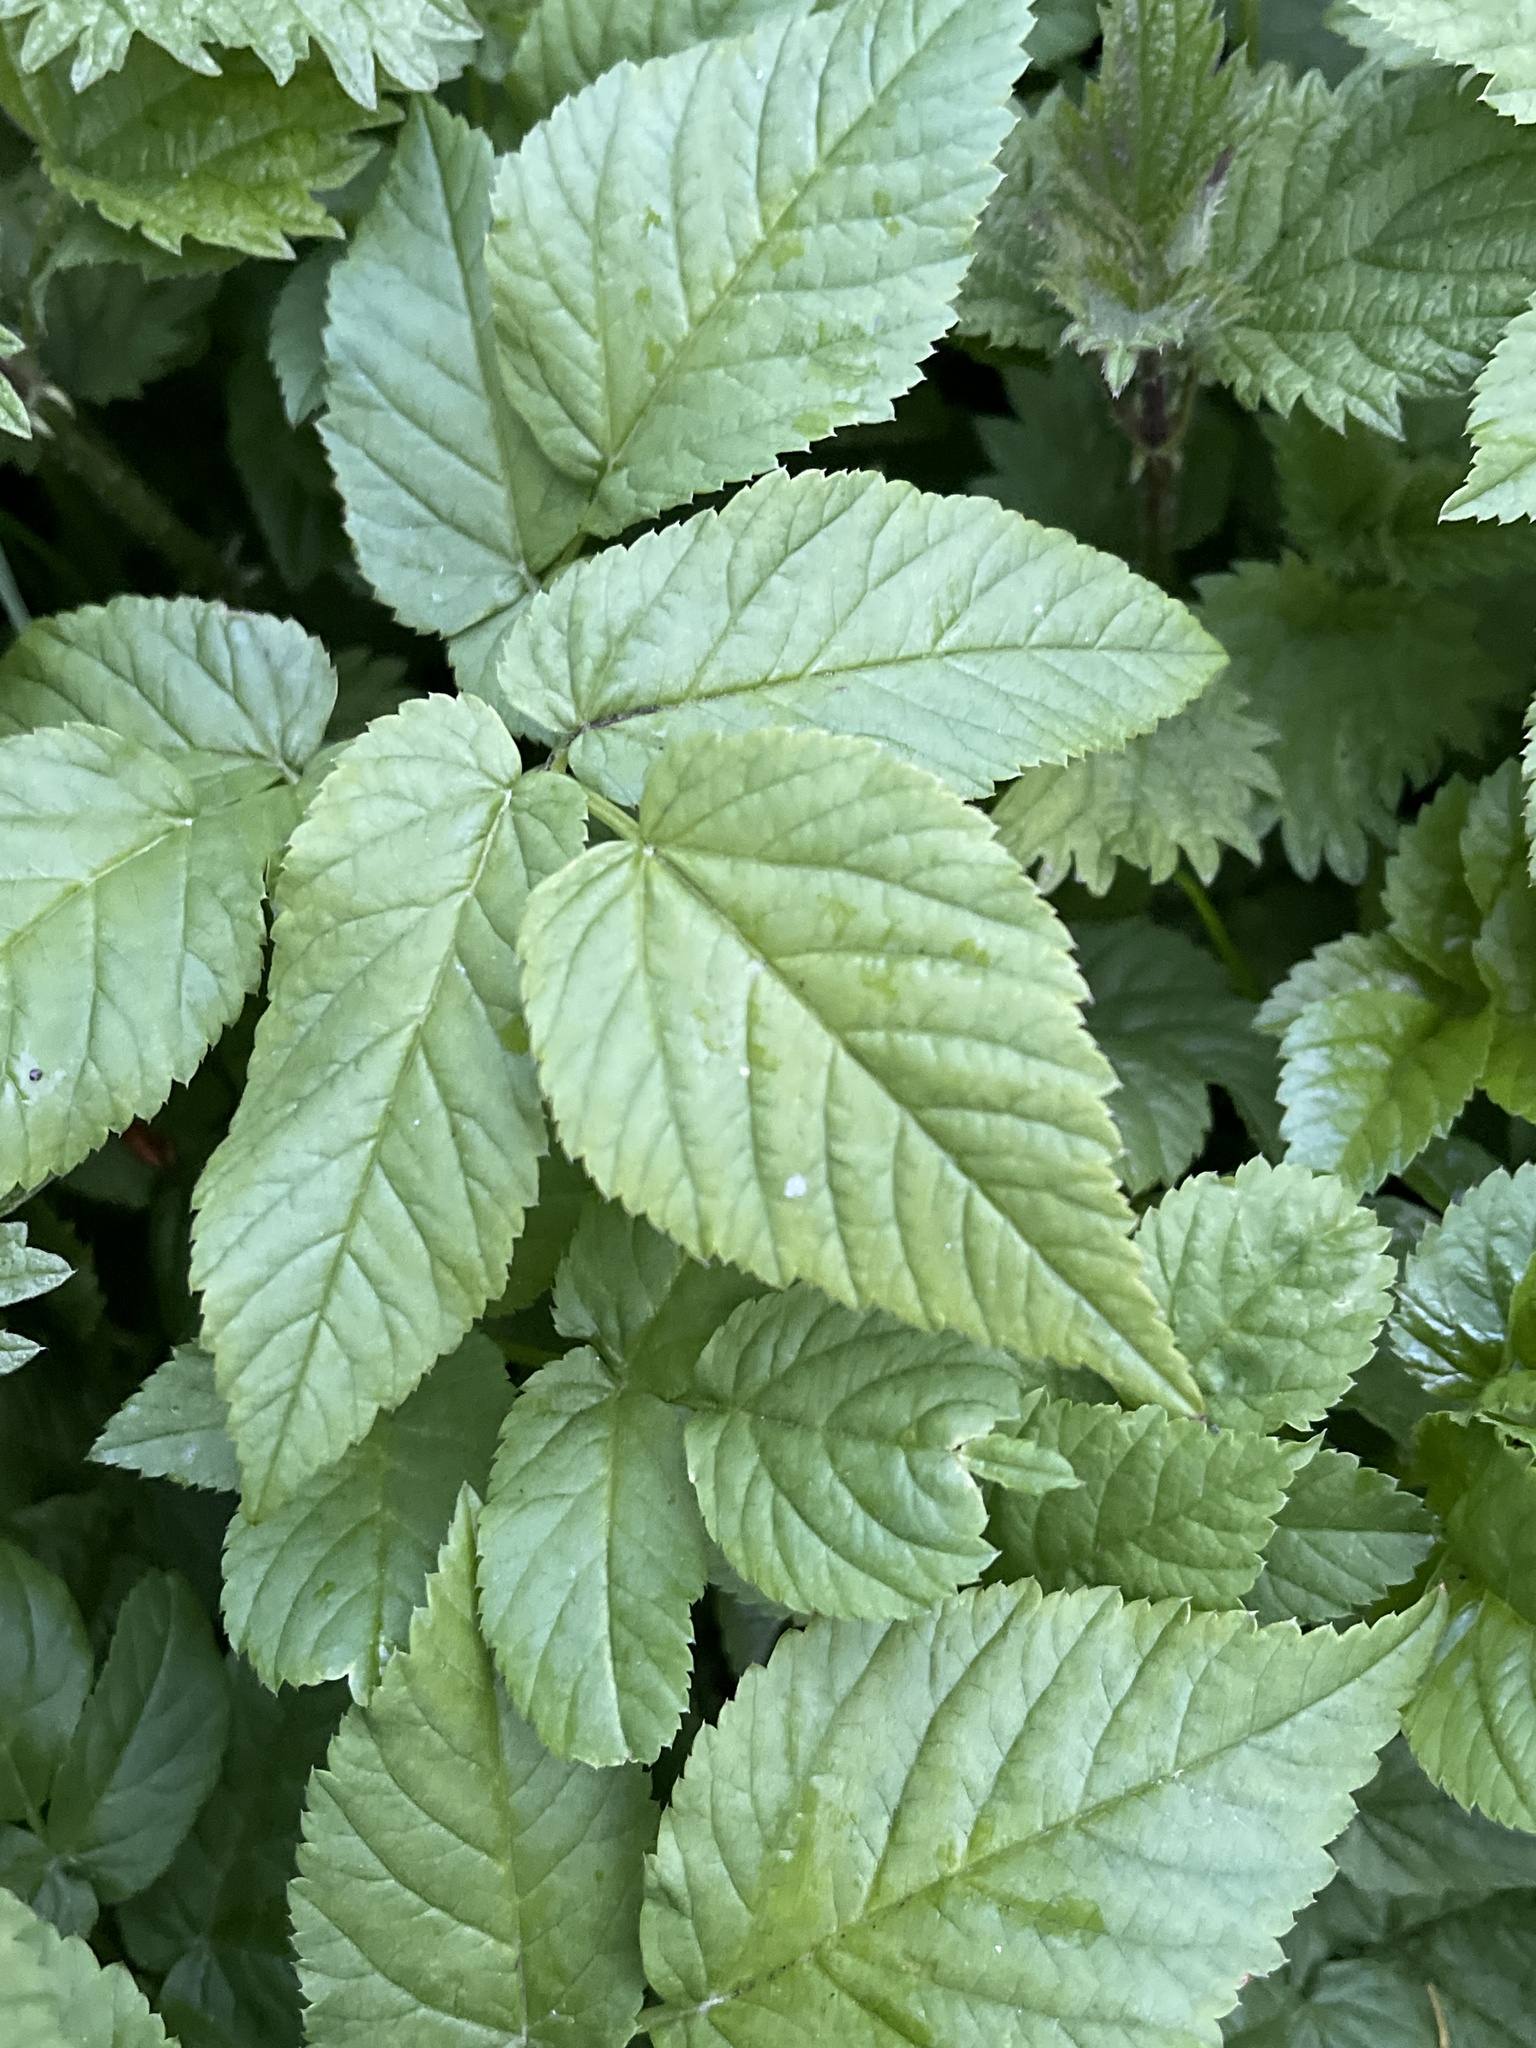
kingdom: Plantae
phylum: Tracheophyta
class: Magnoliopsida
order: Apiales
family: Apiaceae
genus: Aegopodium
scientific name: Aegopodium podagraria
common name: Ground-elder
